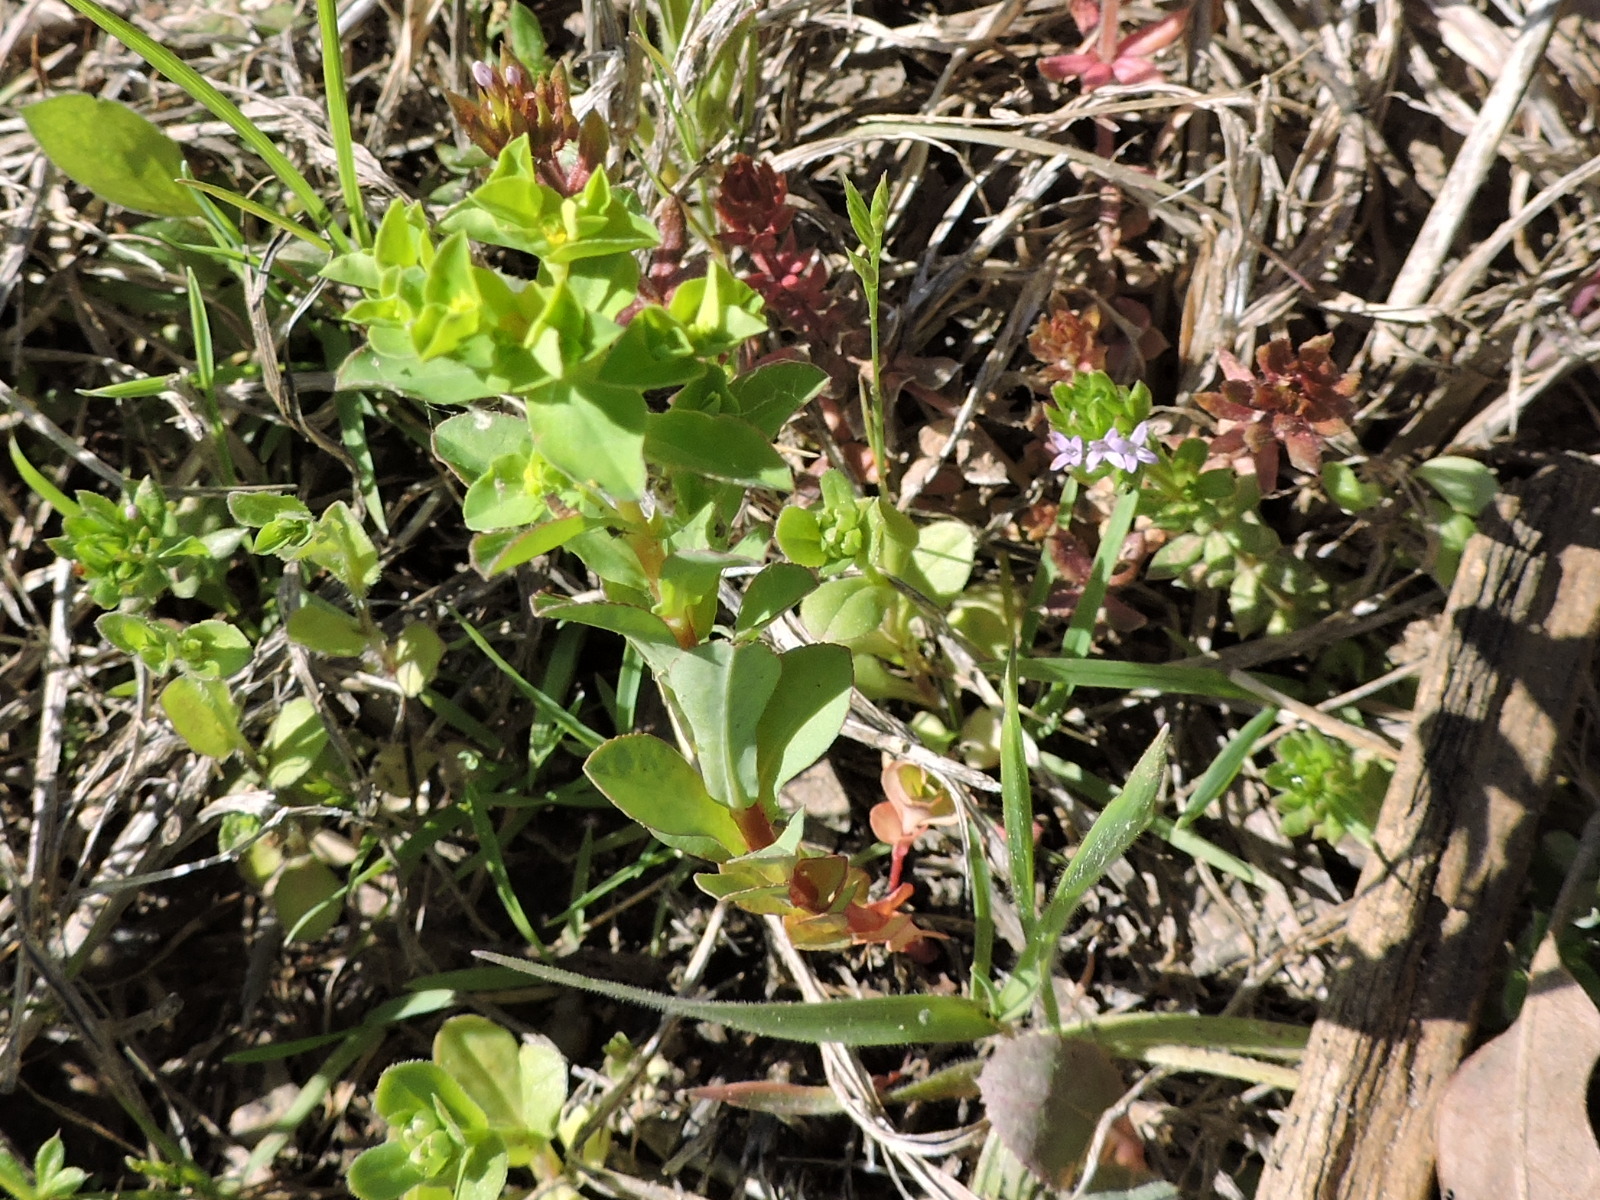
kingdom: Plantae
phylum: Tracheophyta
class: Magnoliopsida
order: Malpighiales
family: Euphorbiaceae
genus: Euphorbia
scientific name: Euphorbia spathulata
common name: Blunt spurge
